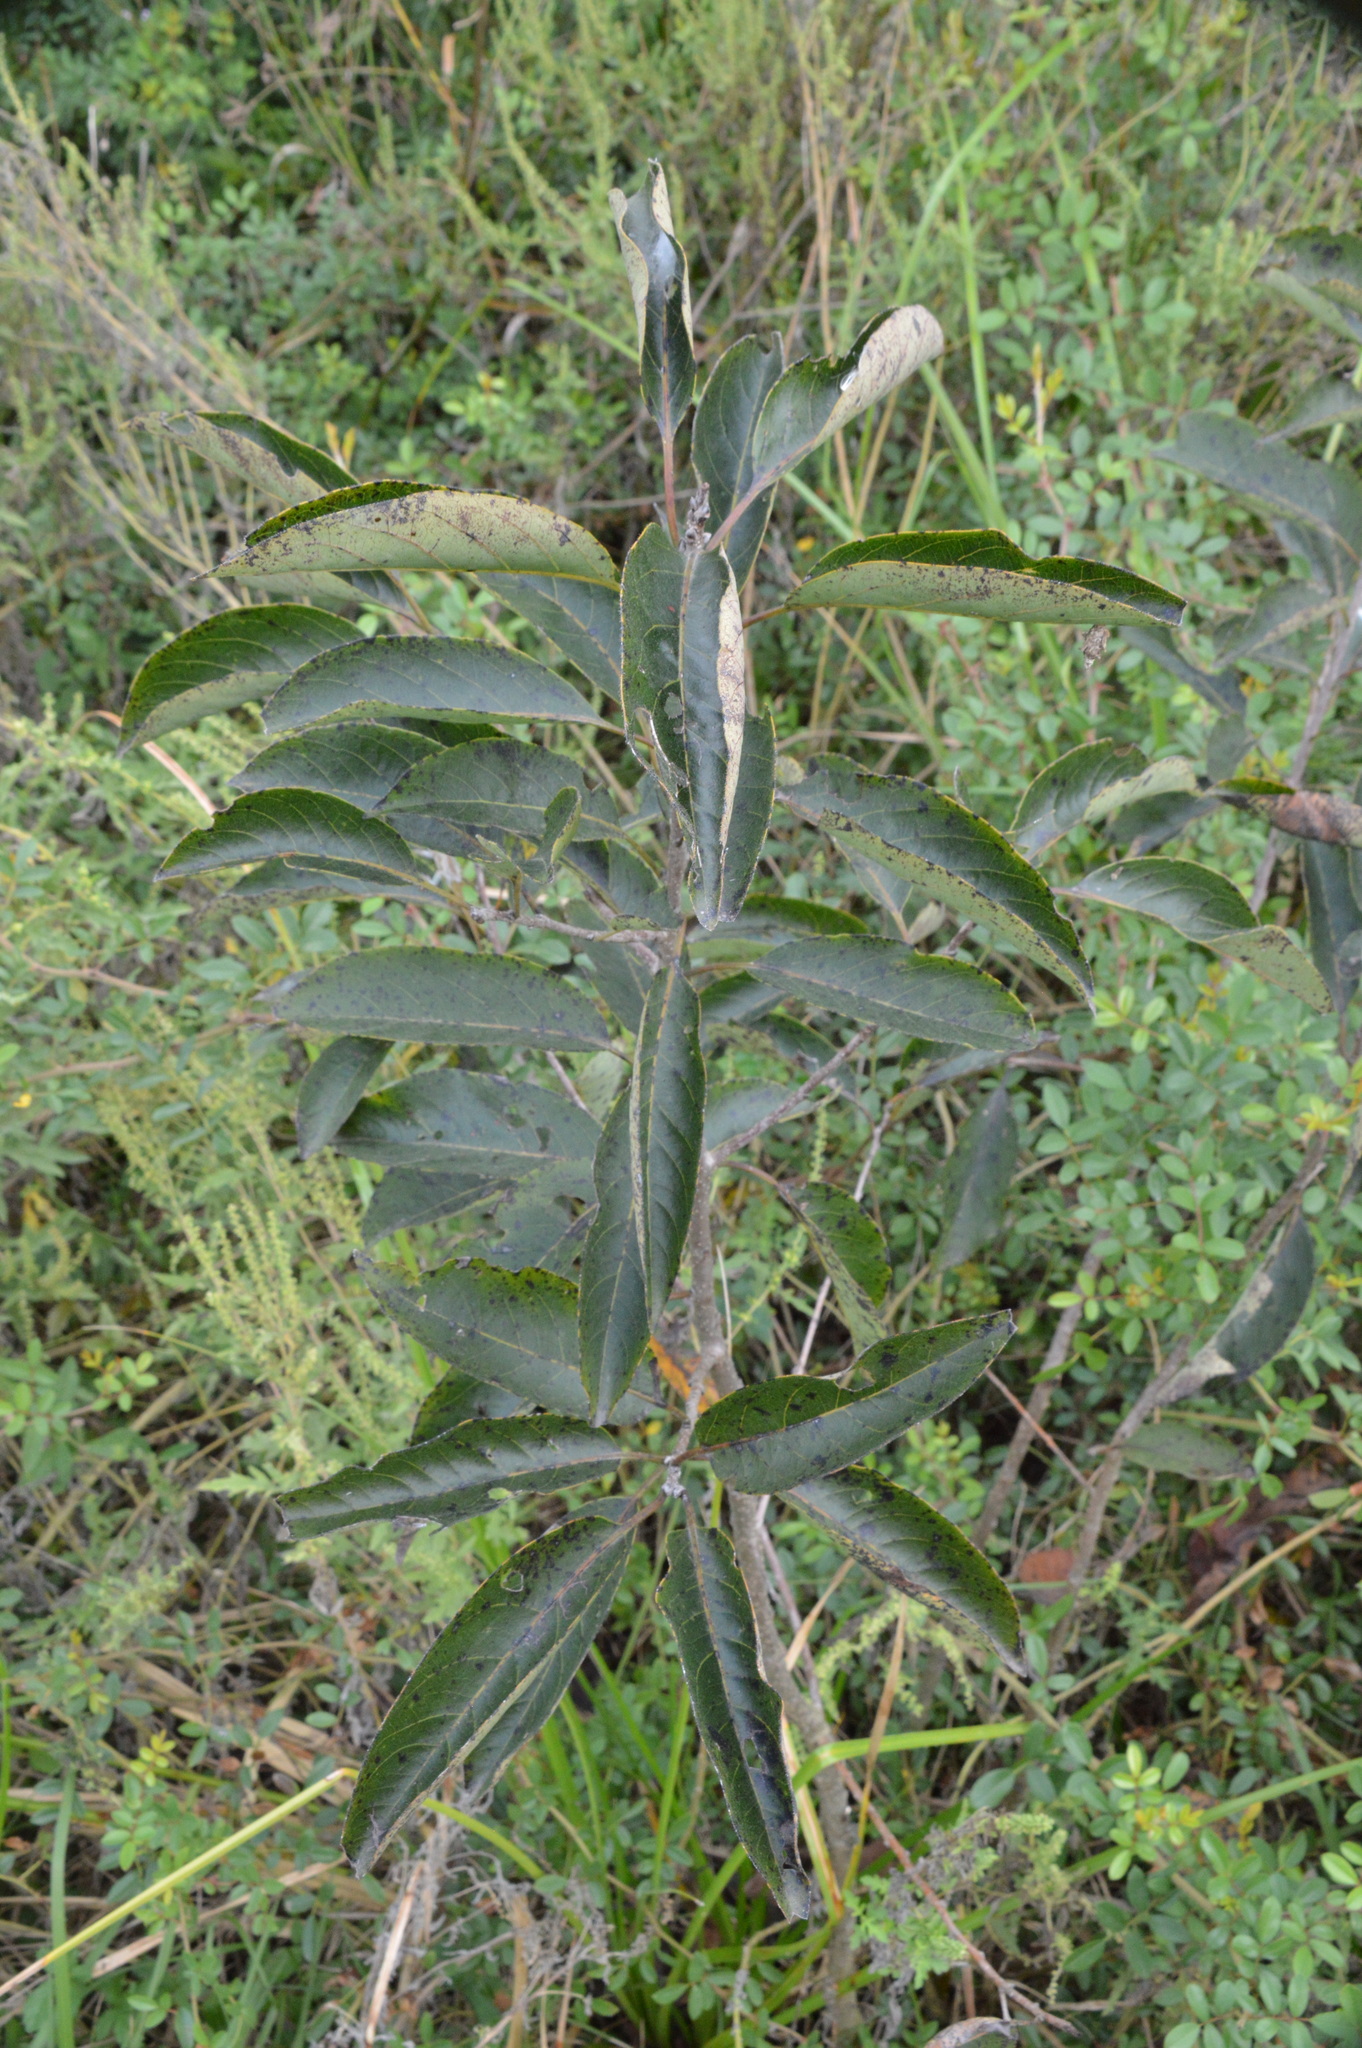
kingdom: Plantae
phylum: Tracheophyta
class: Magnoliopsida
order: Ericales
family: Ebenaceae
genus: Diospyros
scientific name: Diospyros virginiana
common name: Persimmon
